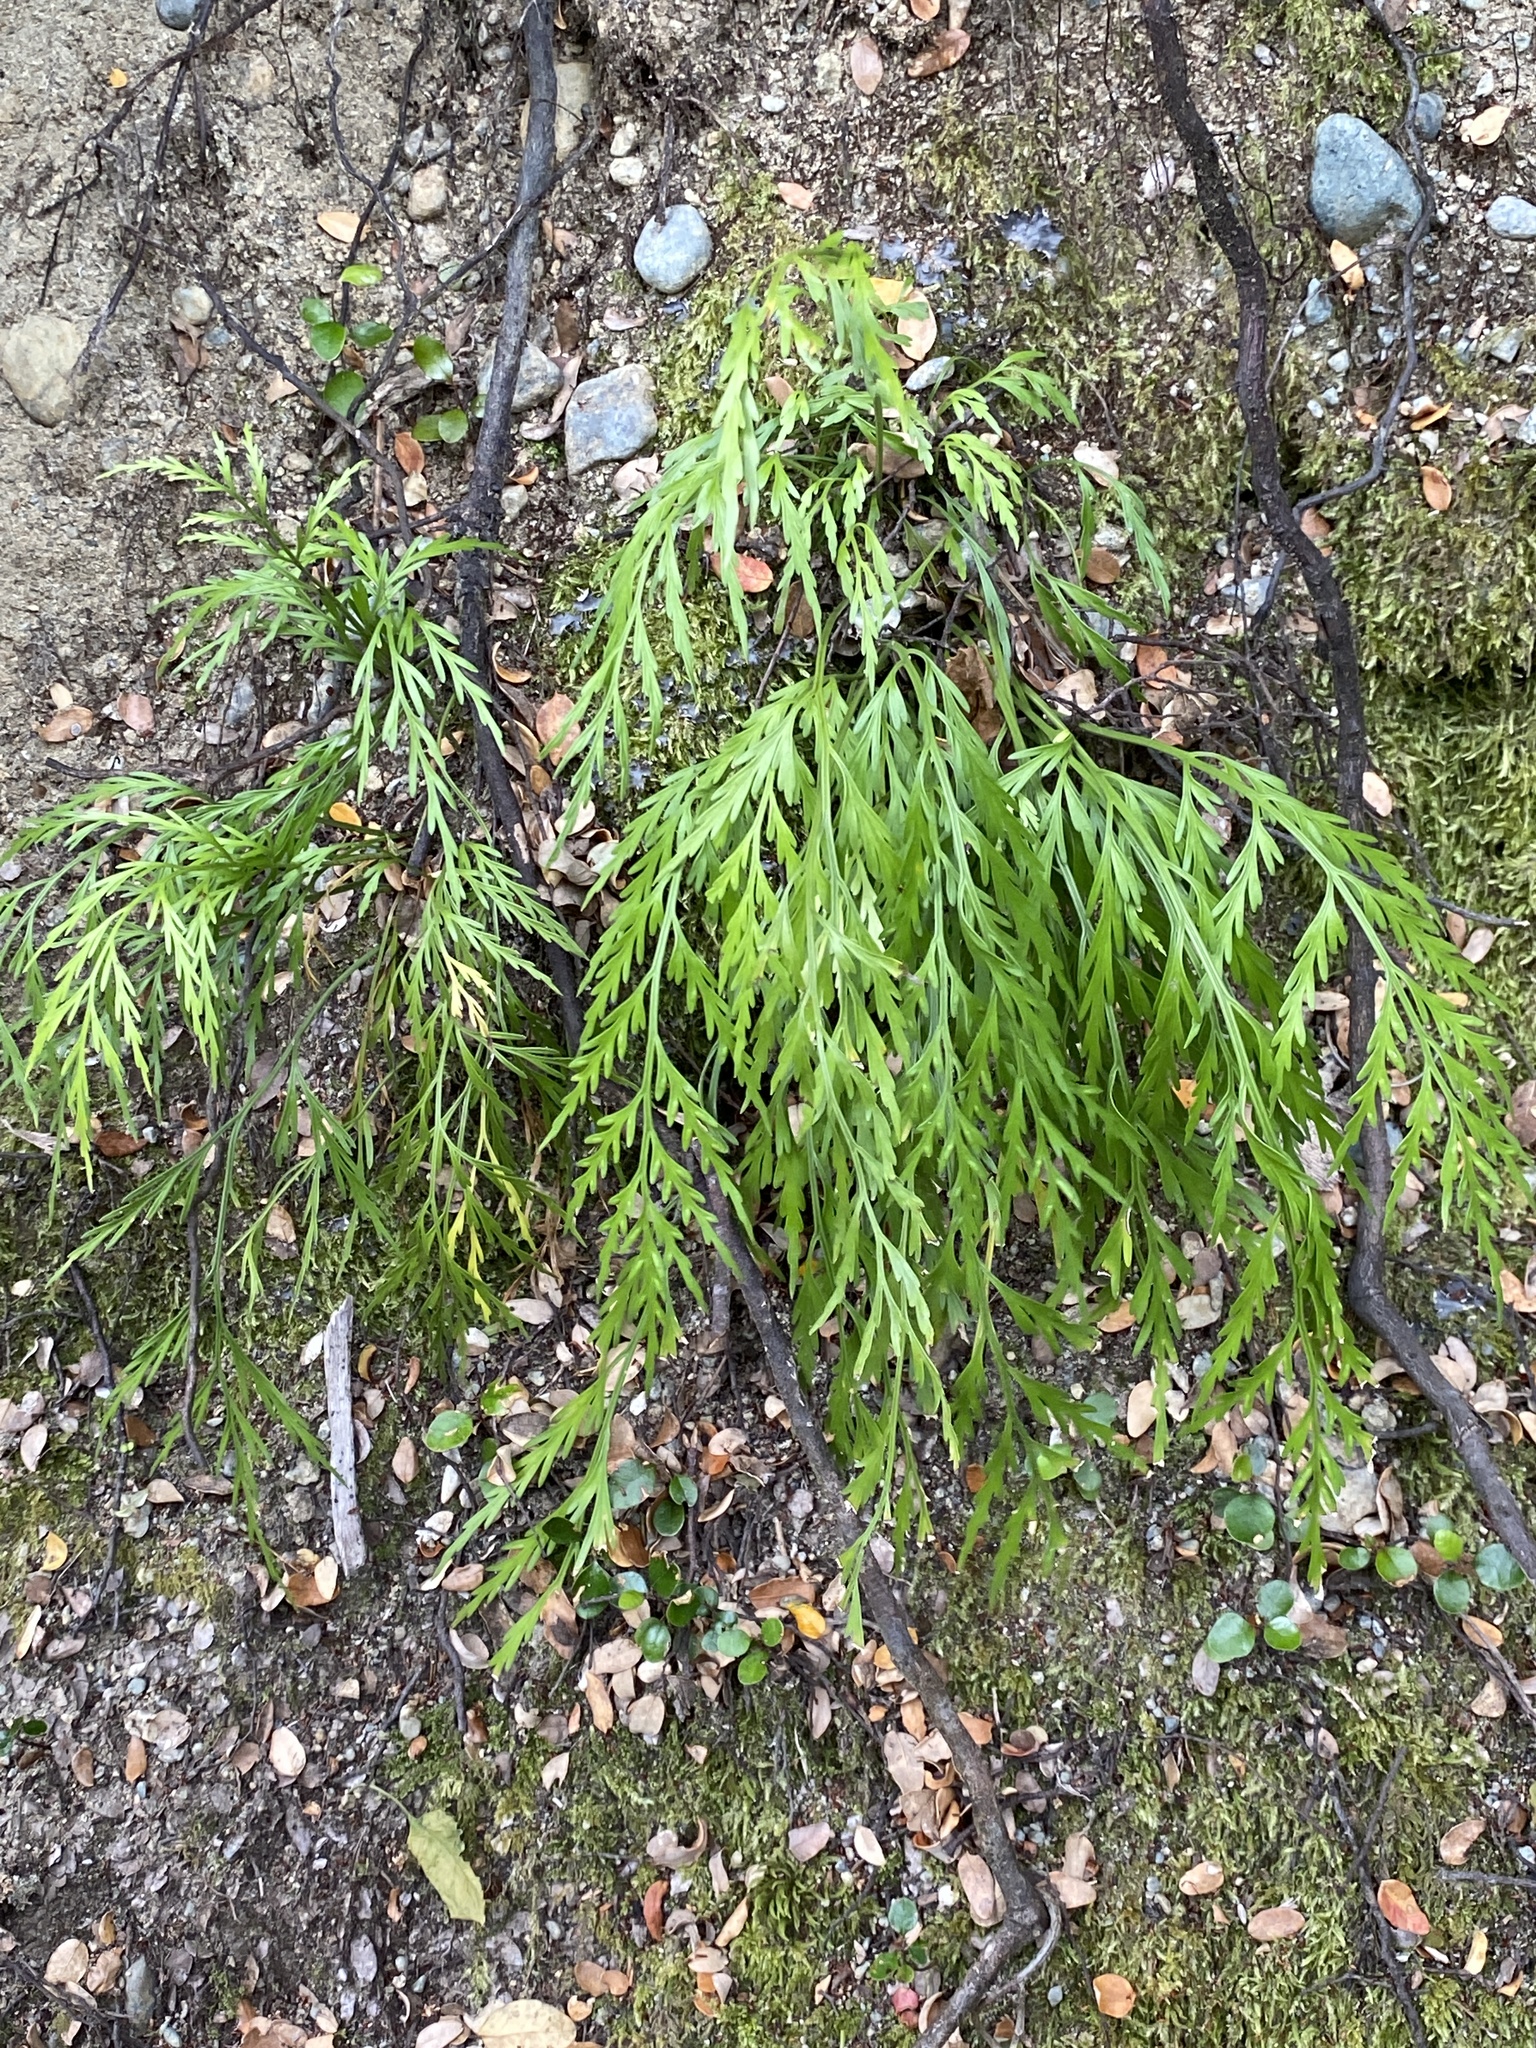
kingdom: Plantae
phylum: Tracheophyta
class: Polypodiopsida
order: Polypodiales
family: Aspleniaceae
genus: Asplenium
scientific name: Asplenium flaccidum
